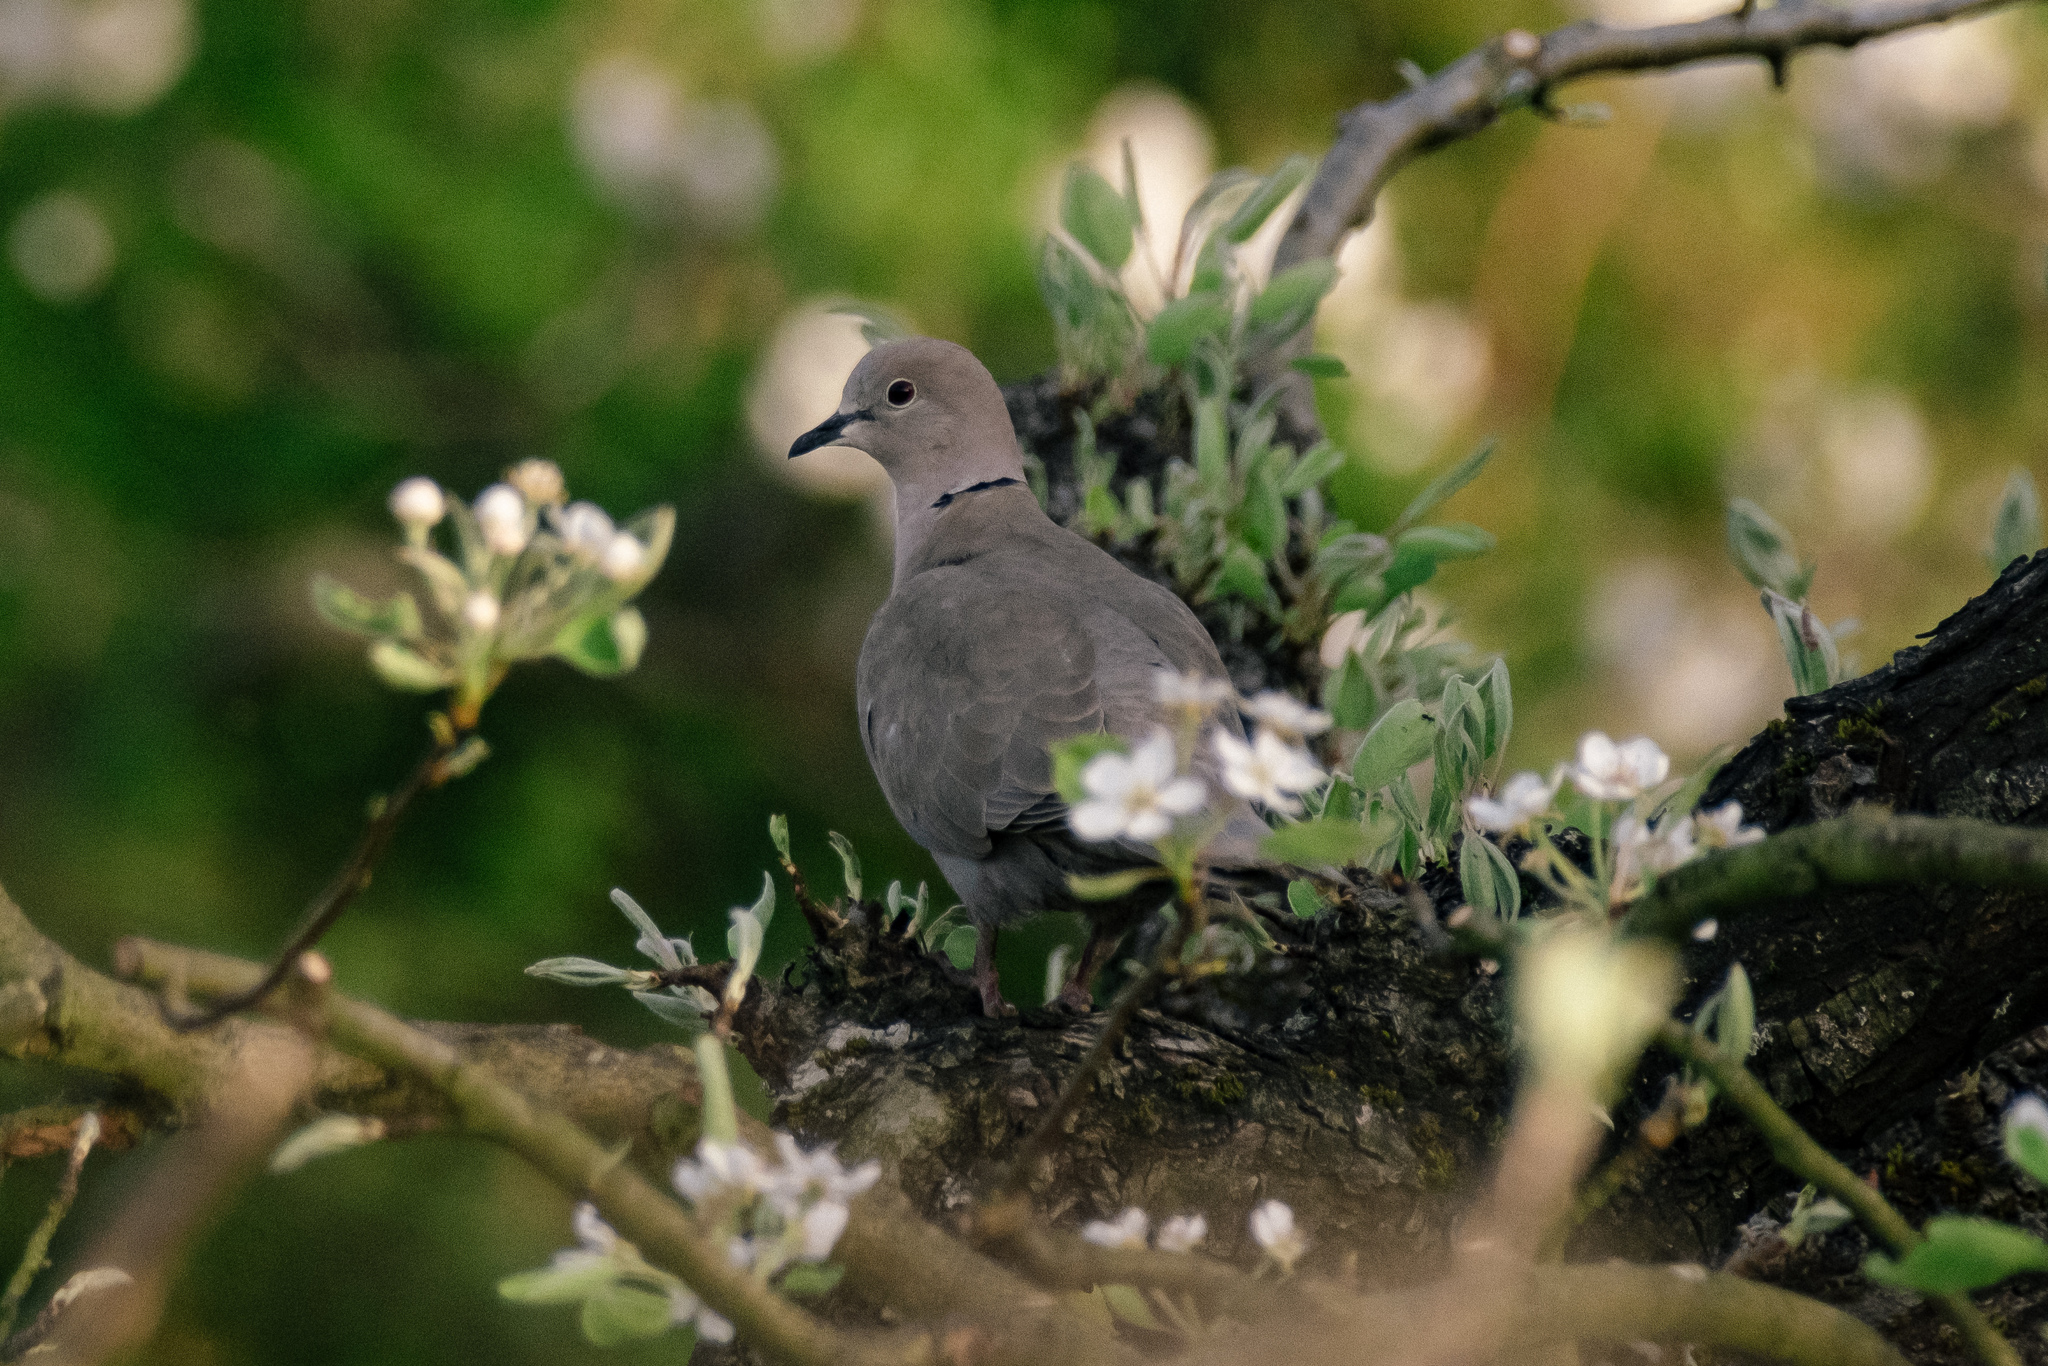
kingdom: Animalia
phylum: Chordata
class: Aves
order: Columbiformes
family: Columbidae
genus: Streptopelia
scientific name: Streptopelia decaocto
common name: Eurasian collared dove
